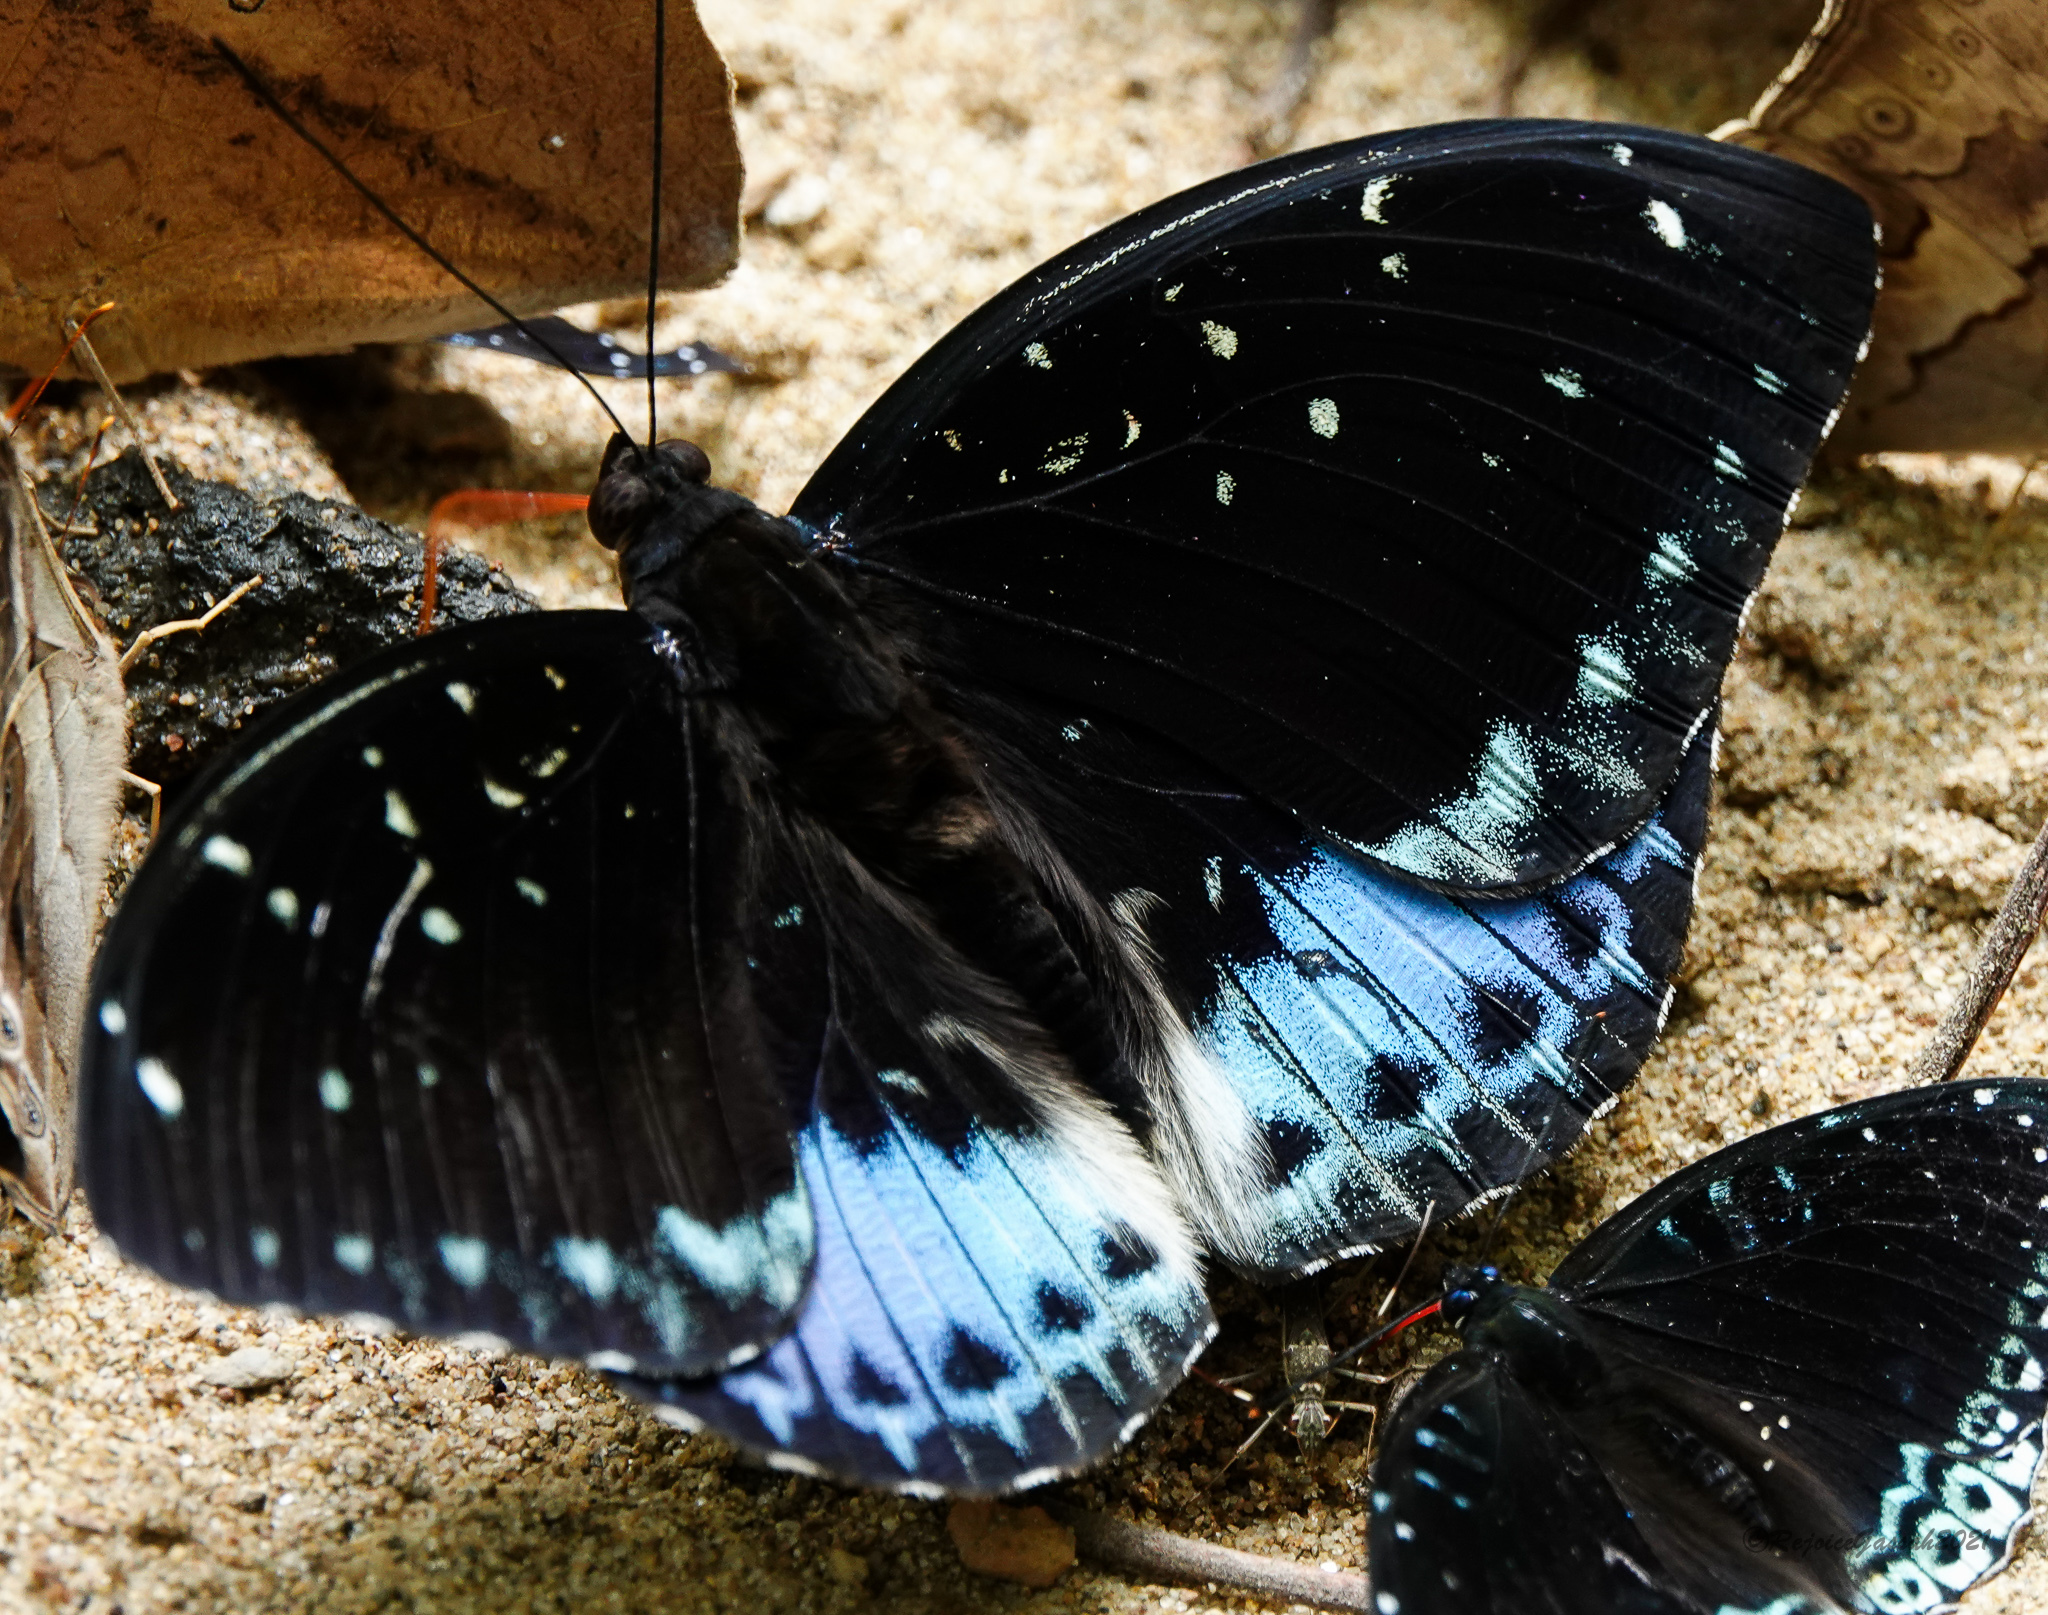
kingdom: Animalia
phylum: Arthropoda
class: Insecta
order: Lepidoptera
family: Nymphalidae
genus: Lexias
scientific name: Lexias
